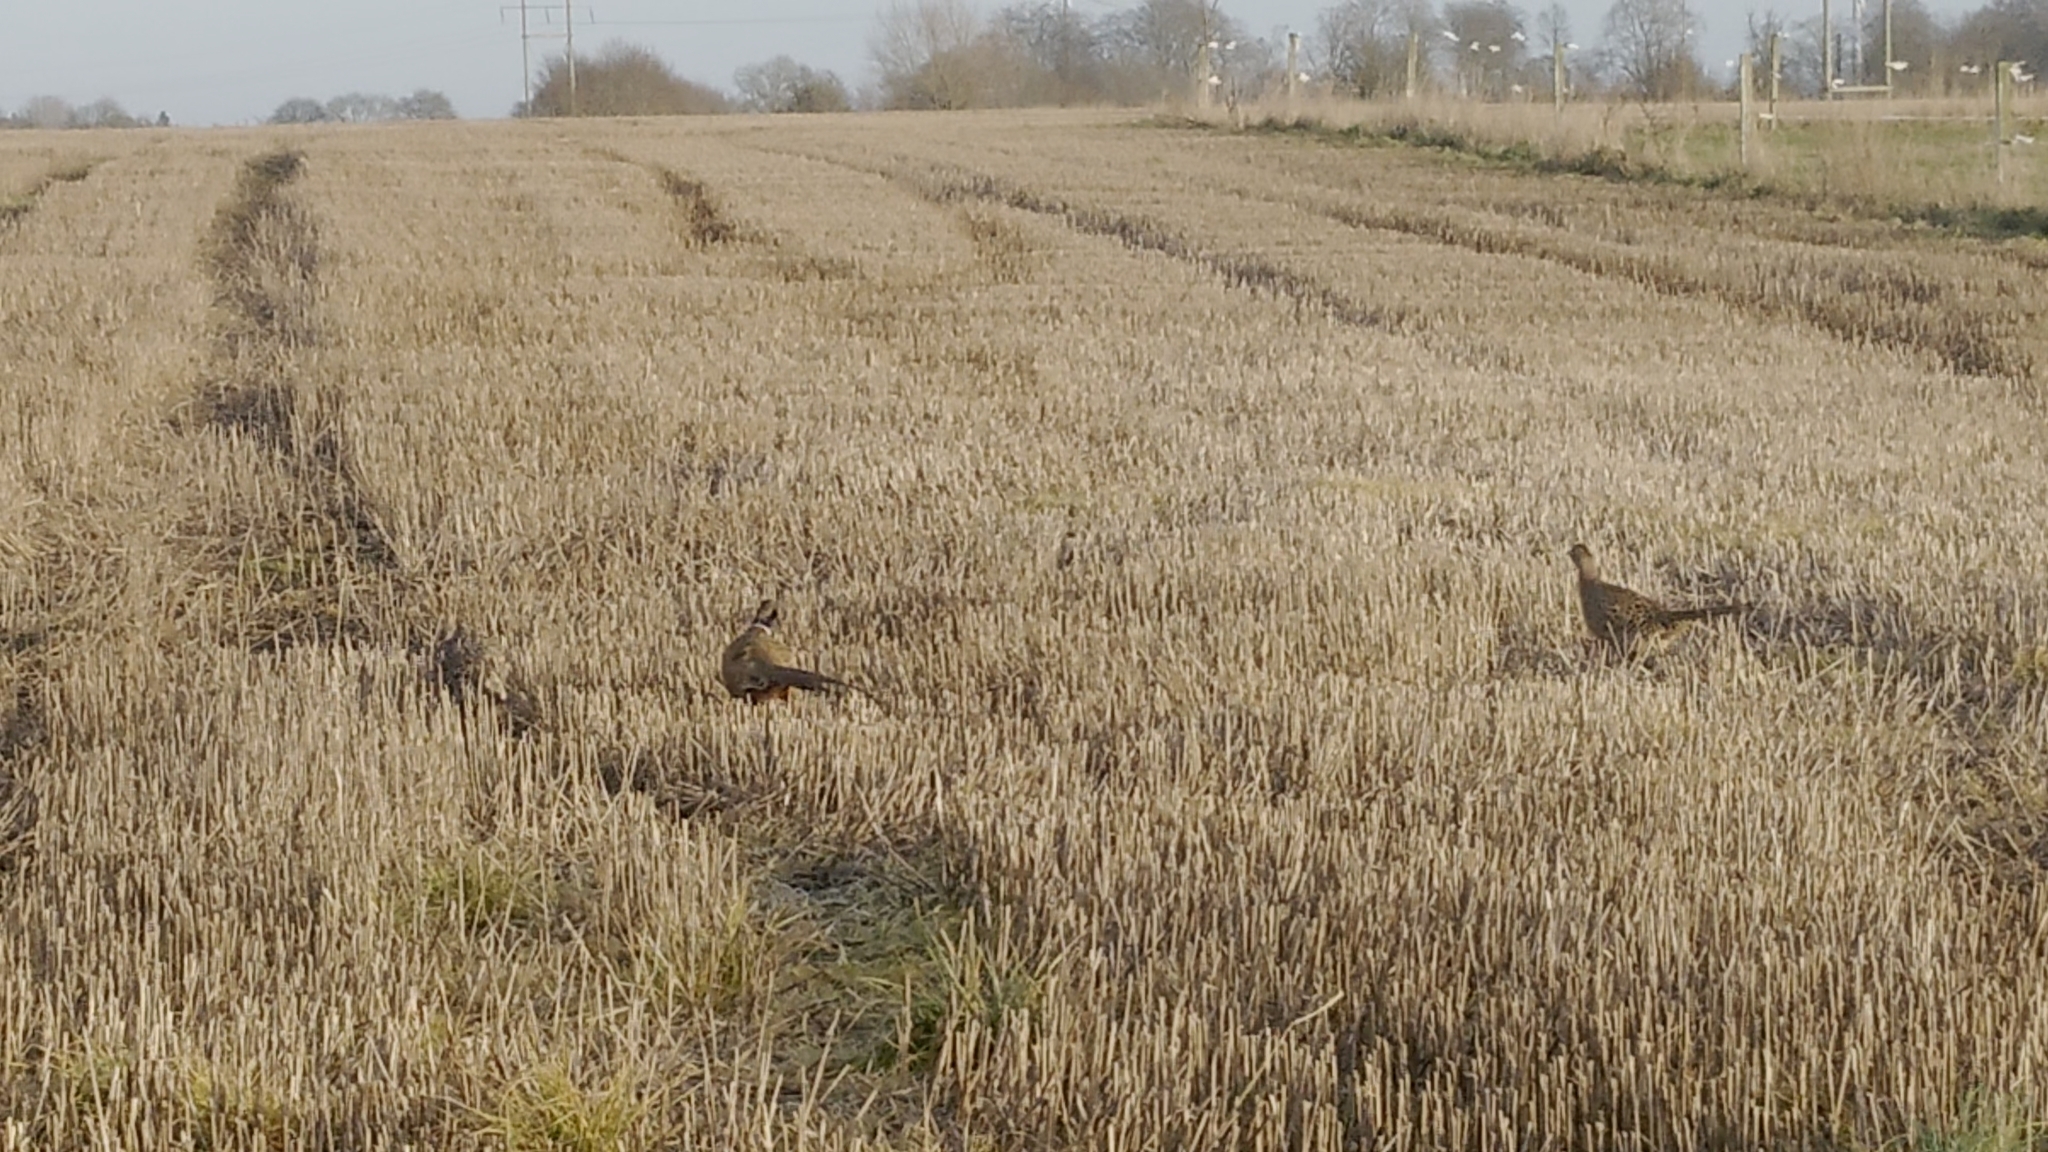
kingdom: Animalia
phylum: Chordata
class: Aves
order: Galliformes
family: Phasianidae
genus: Phasianus
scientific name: Phasianus colchicus
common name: Common pheasant
